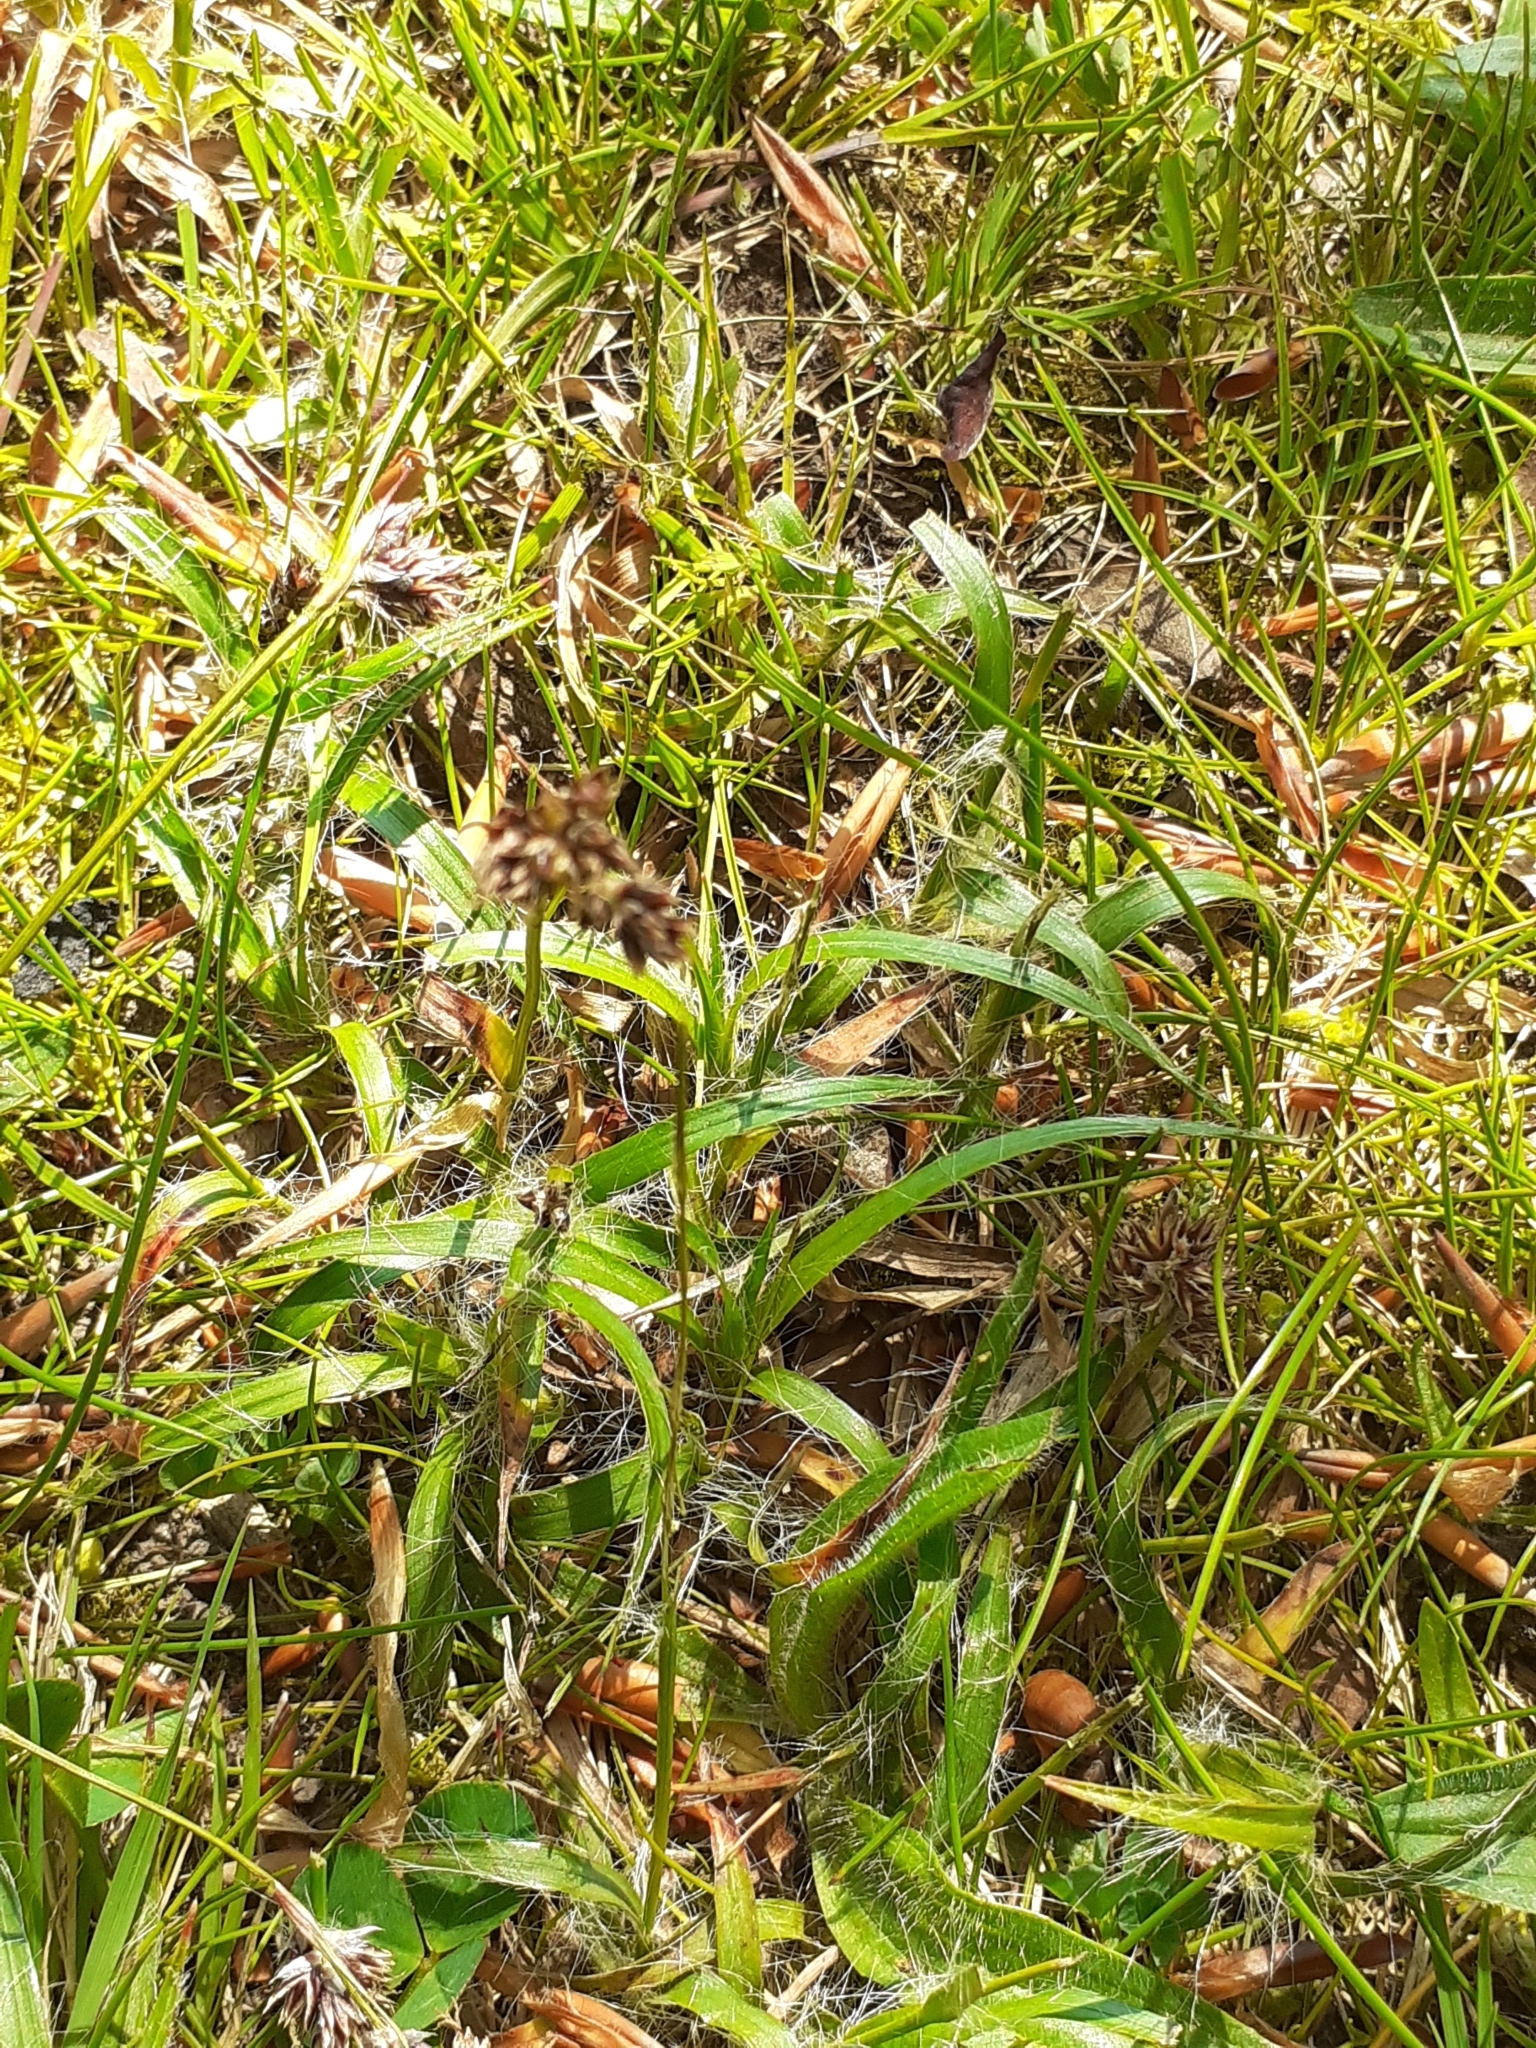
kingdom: Plantae
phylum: Tracheophyta
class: Liliopsida
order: Poales
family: Juncaceae
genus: Luzula
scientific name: Luzula campestris
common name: Field wood-rush
